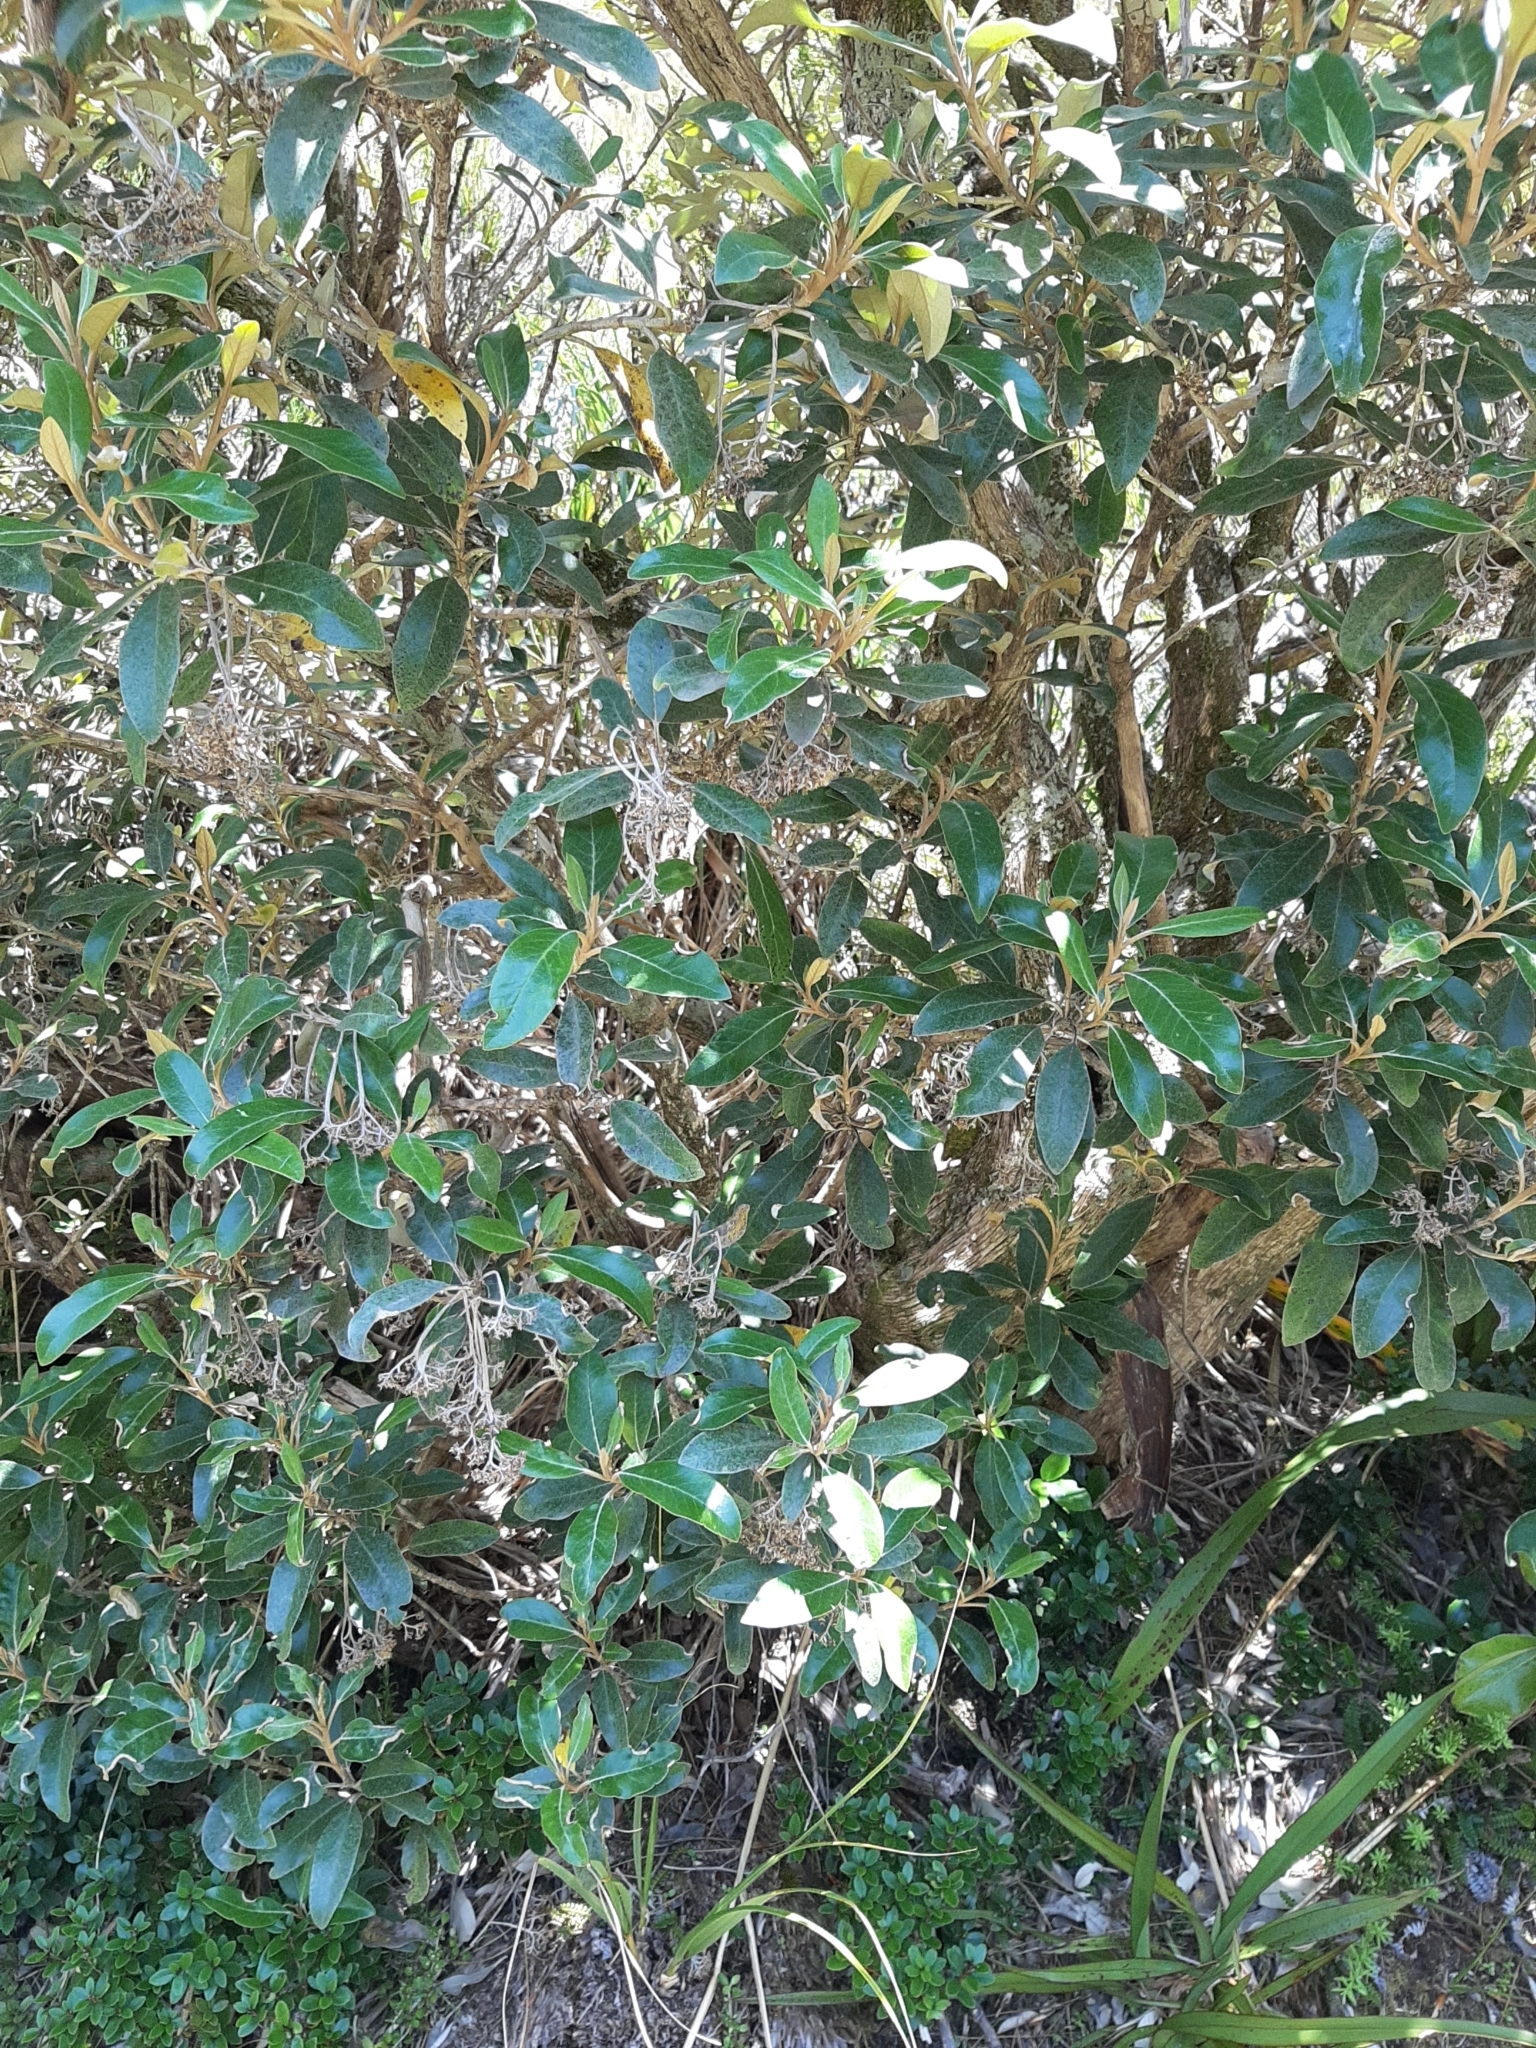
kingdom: Plantae
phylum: Tracheophyta
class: Magnoliopsida
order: Asterales
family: Asteraceae
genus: Olearia
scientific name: Olearia avicenniifolia
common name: Mangrove-leaf daisybush
